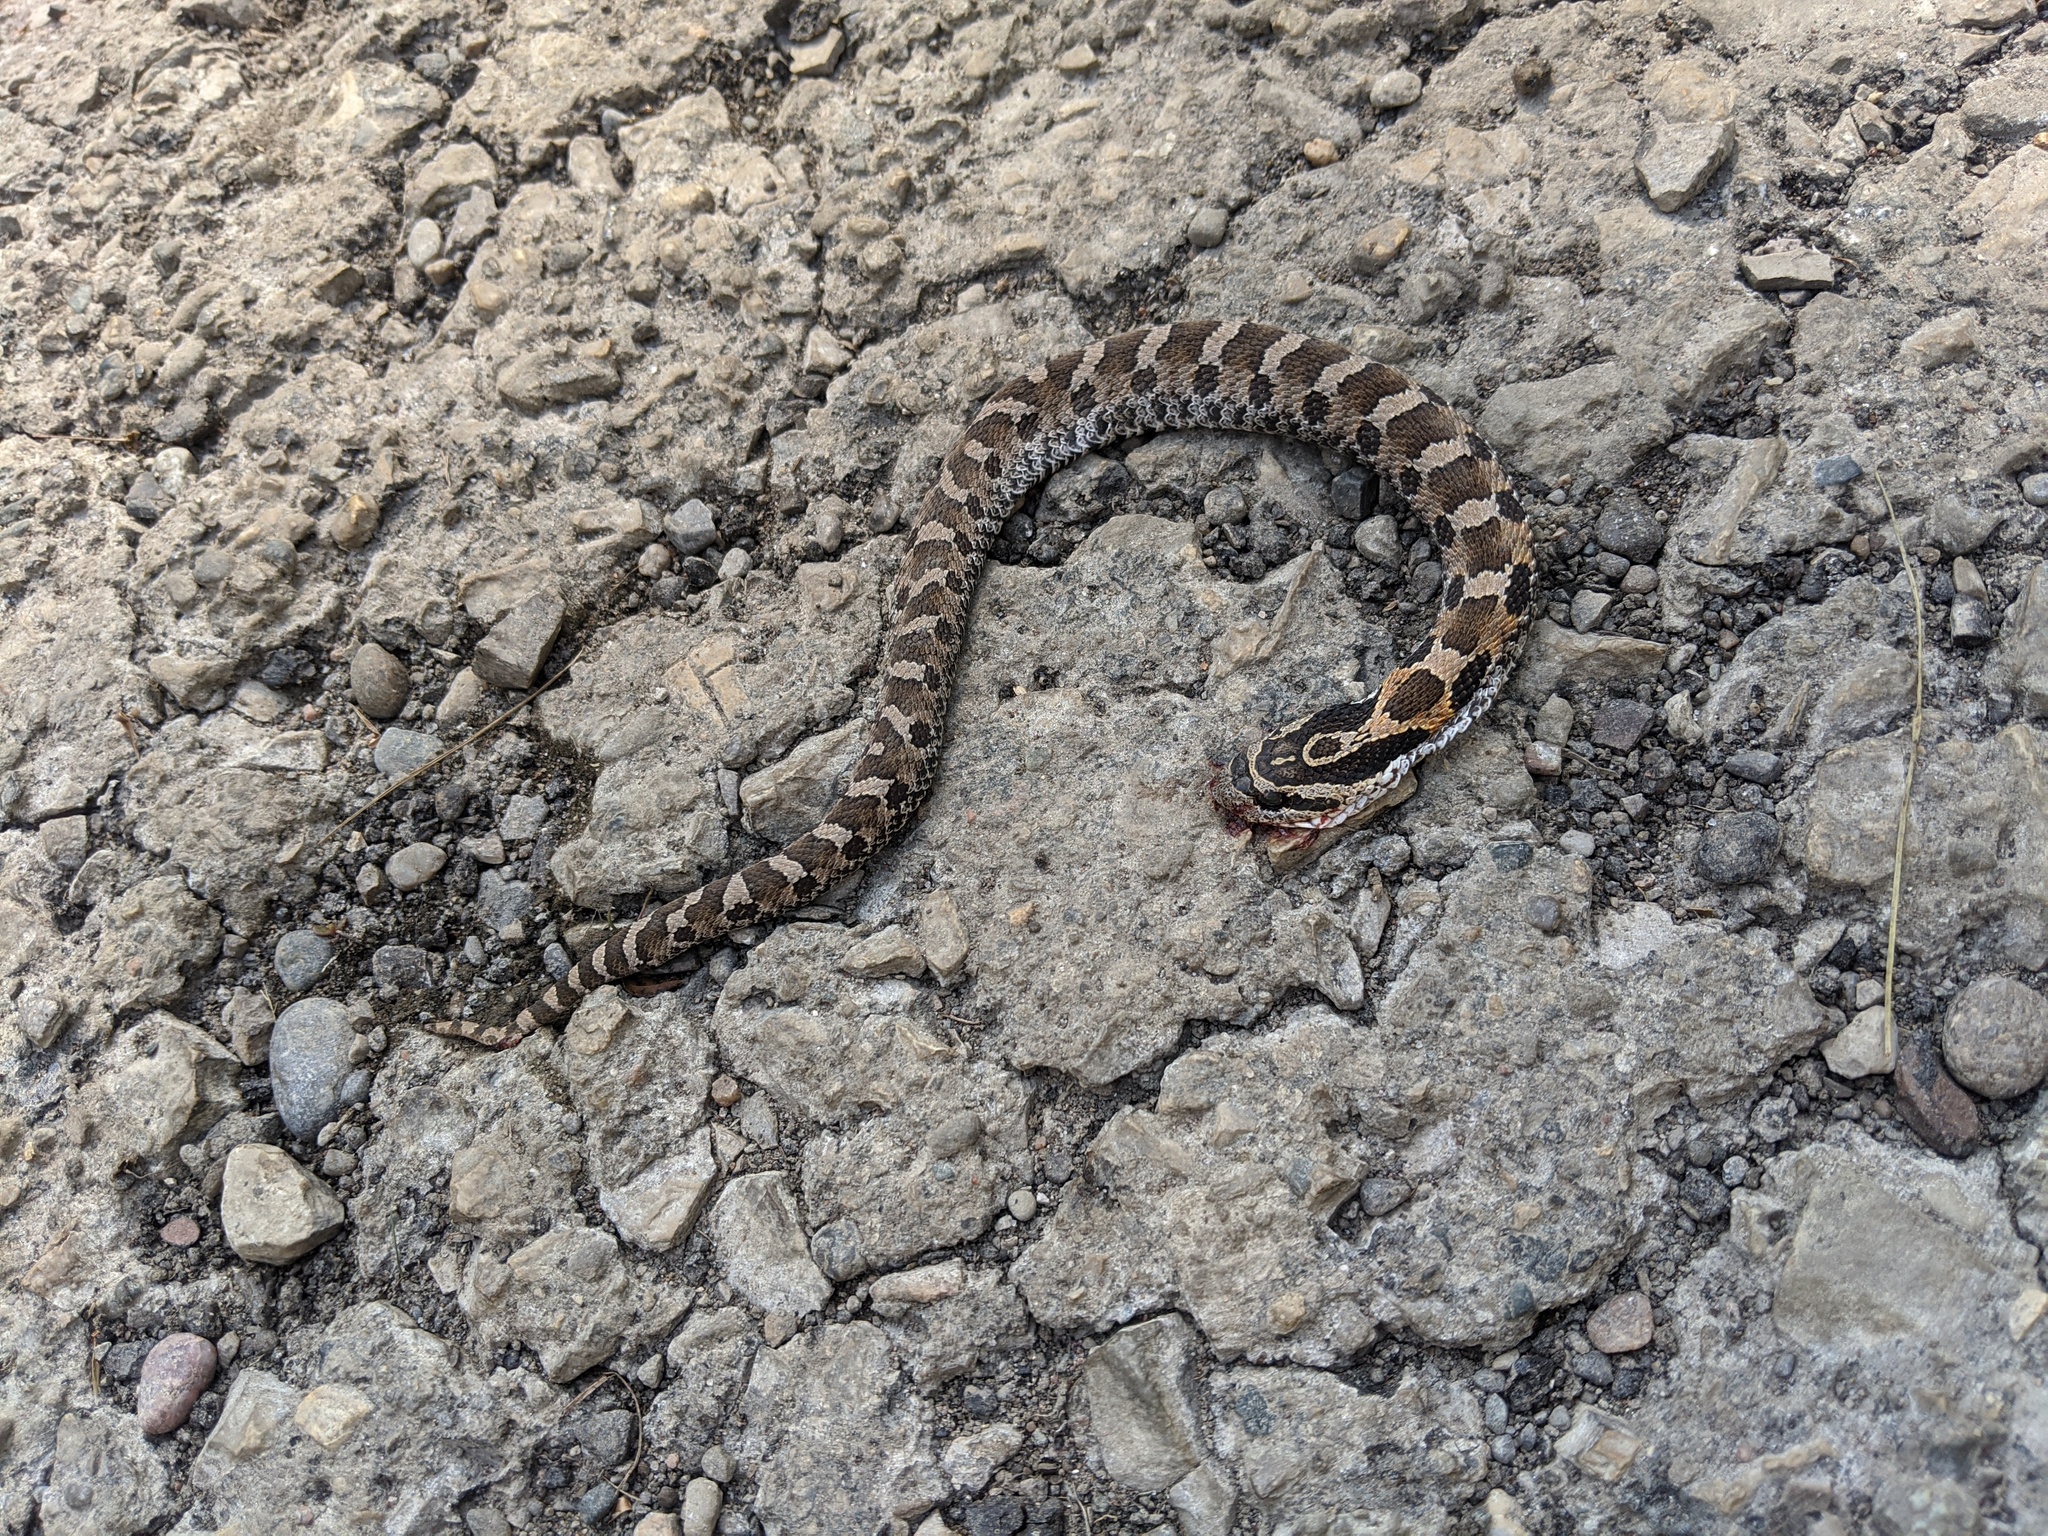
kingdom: Animalia
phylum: Chordata
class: Squamata
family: Colubridae
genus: Heterodon
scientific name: Heterodon platirhinos
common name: Eastern hognose snake
